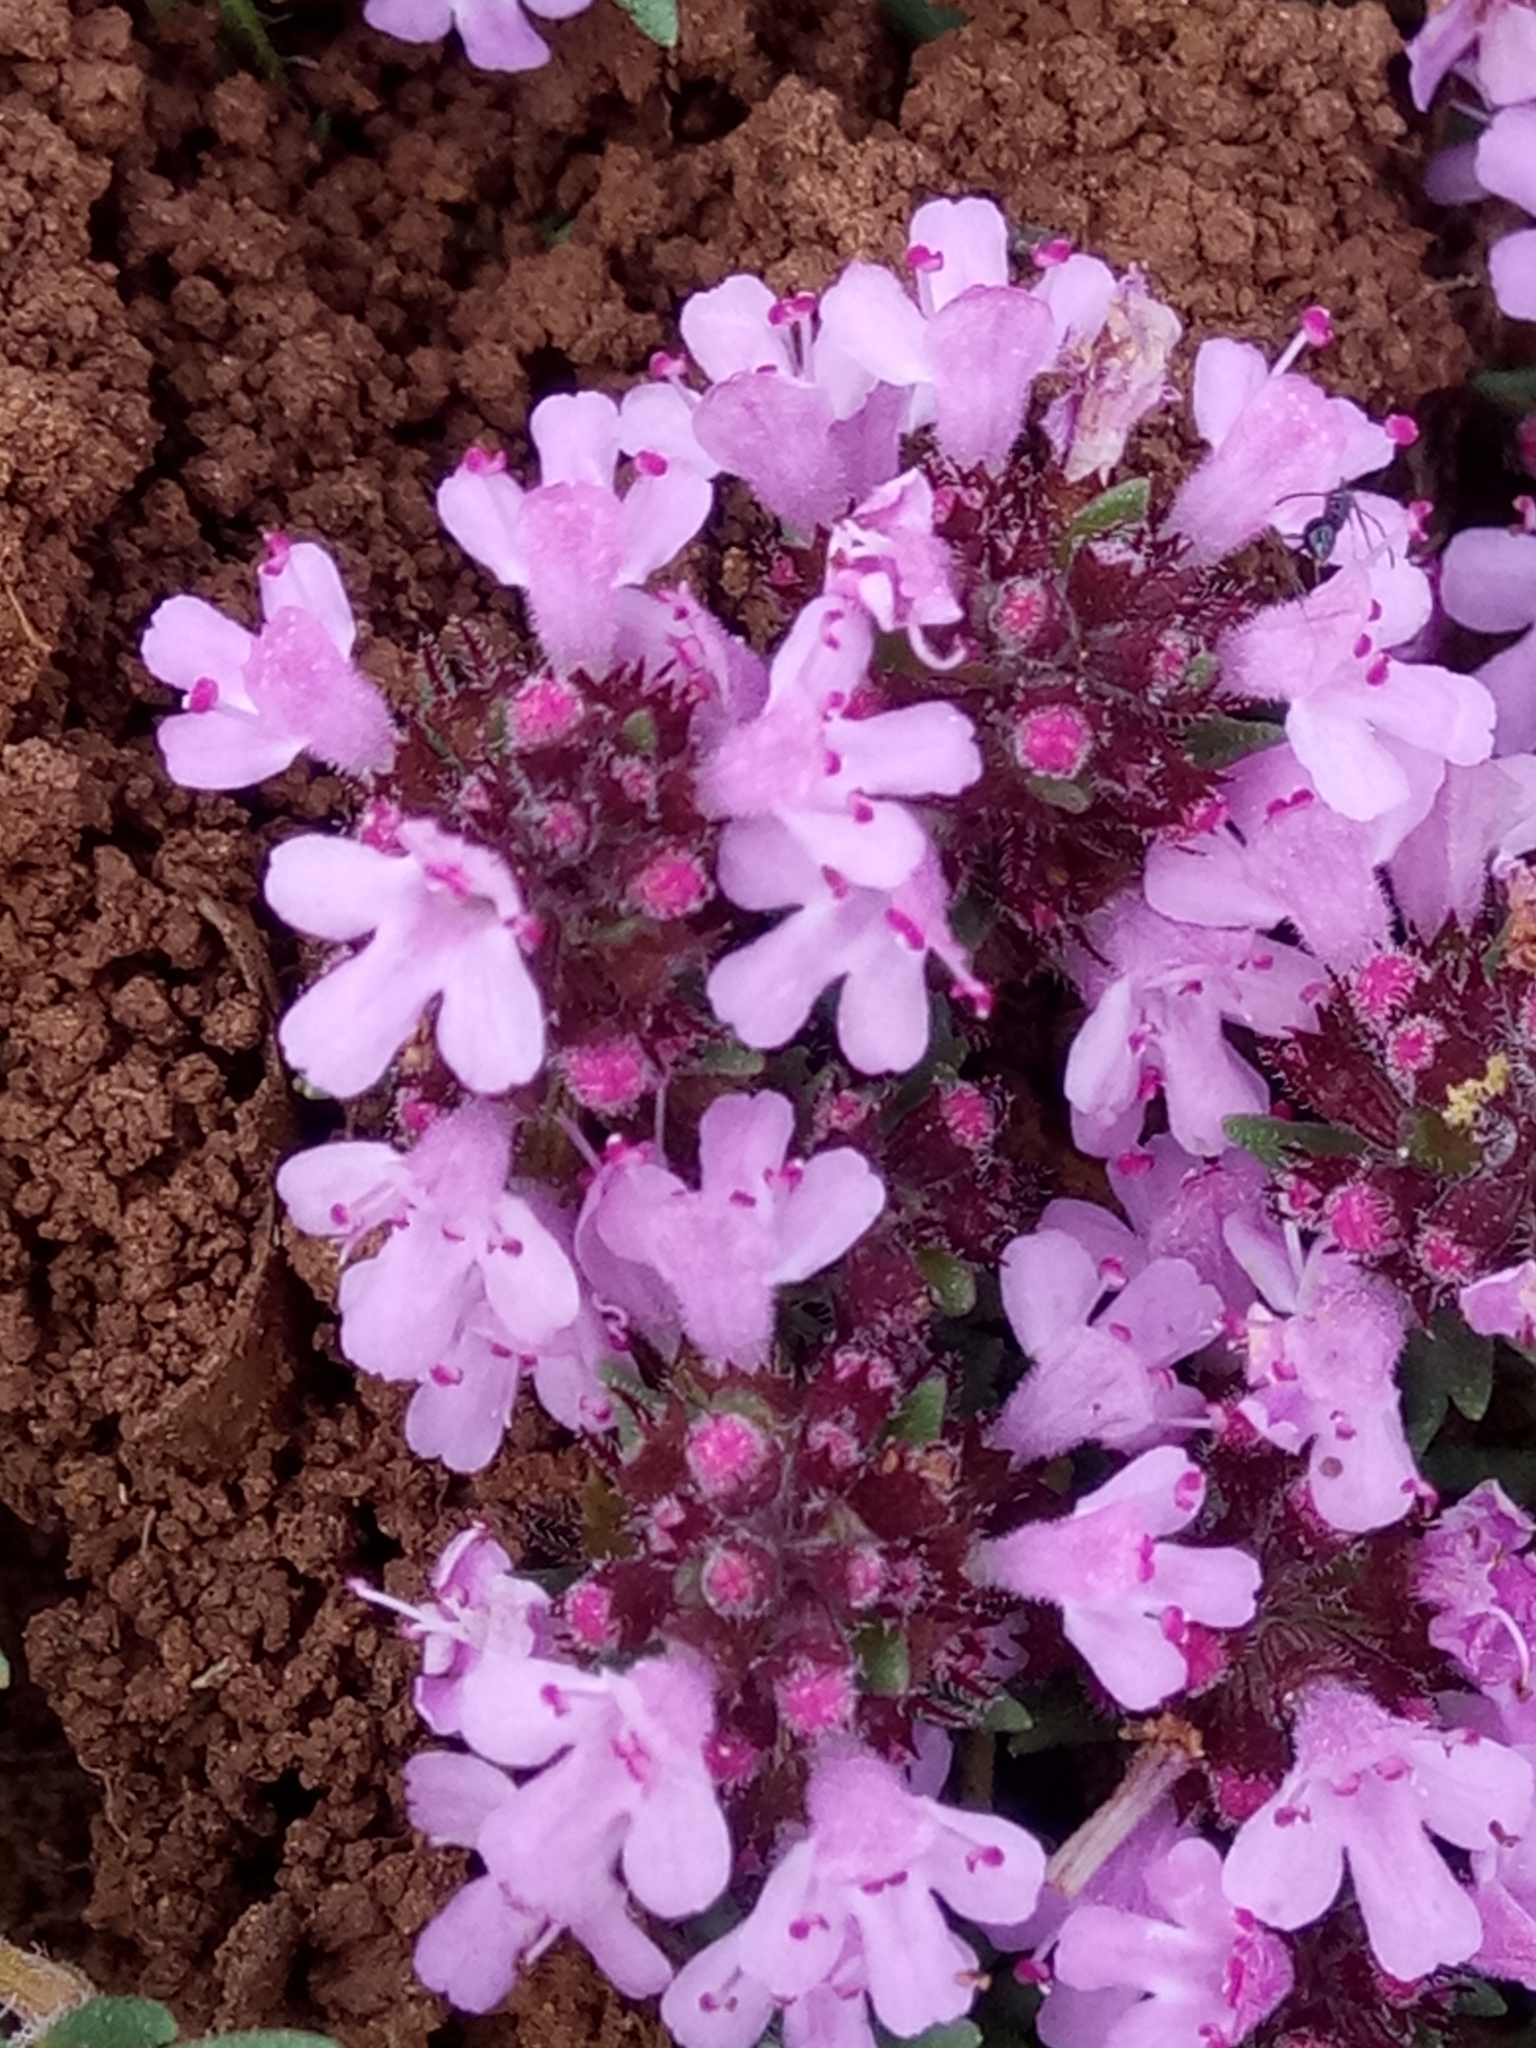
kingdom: Plantae
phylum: Tracheophyta
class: Magnoliopsida
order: Lamiales
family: Lamiaceae
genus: Thymus
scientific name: Thymus willdenowii
